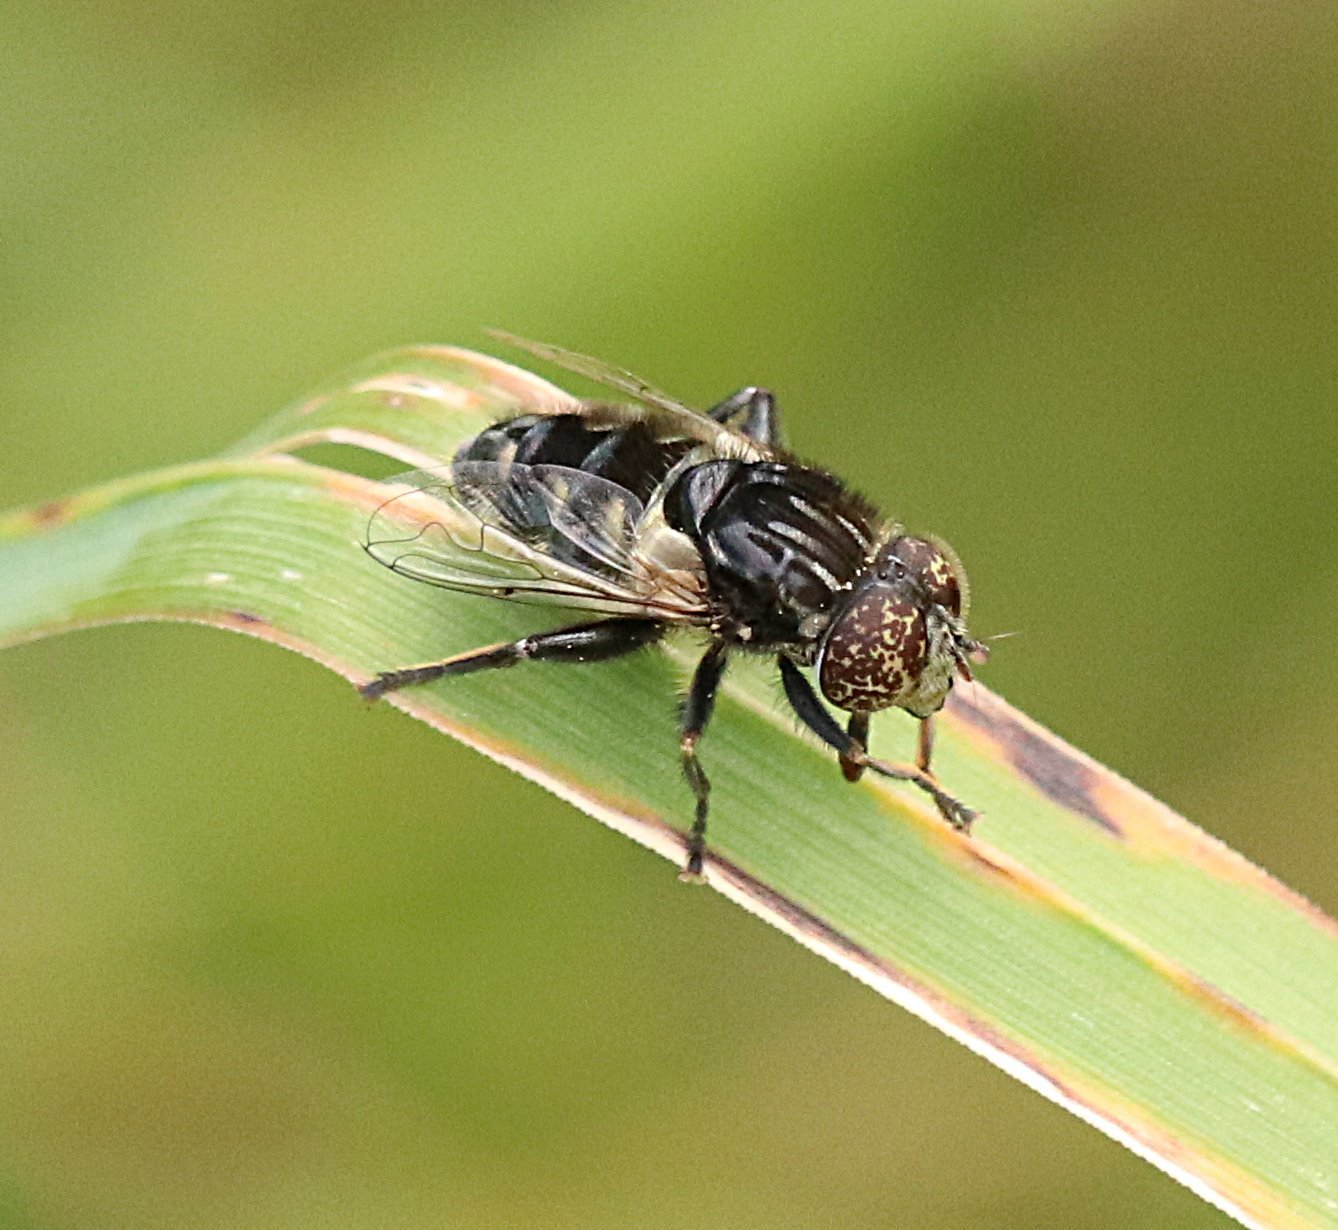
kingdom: Animalia
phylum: Arthropoda
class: Insecta
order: Diptera
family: Syrphidae
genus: Eristalinus
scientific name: Eristalinus sepulchralis
